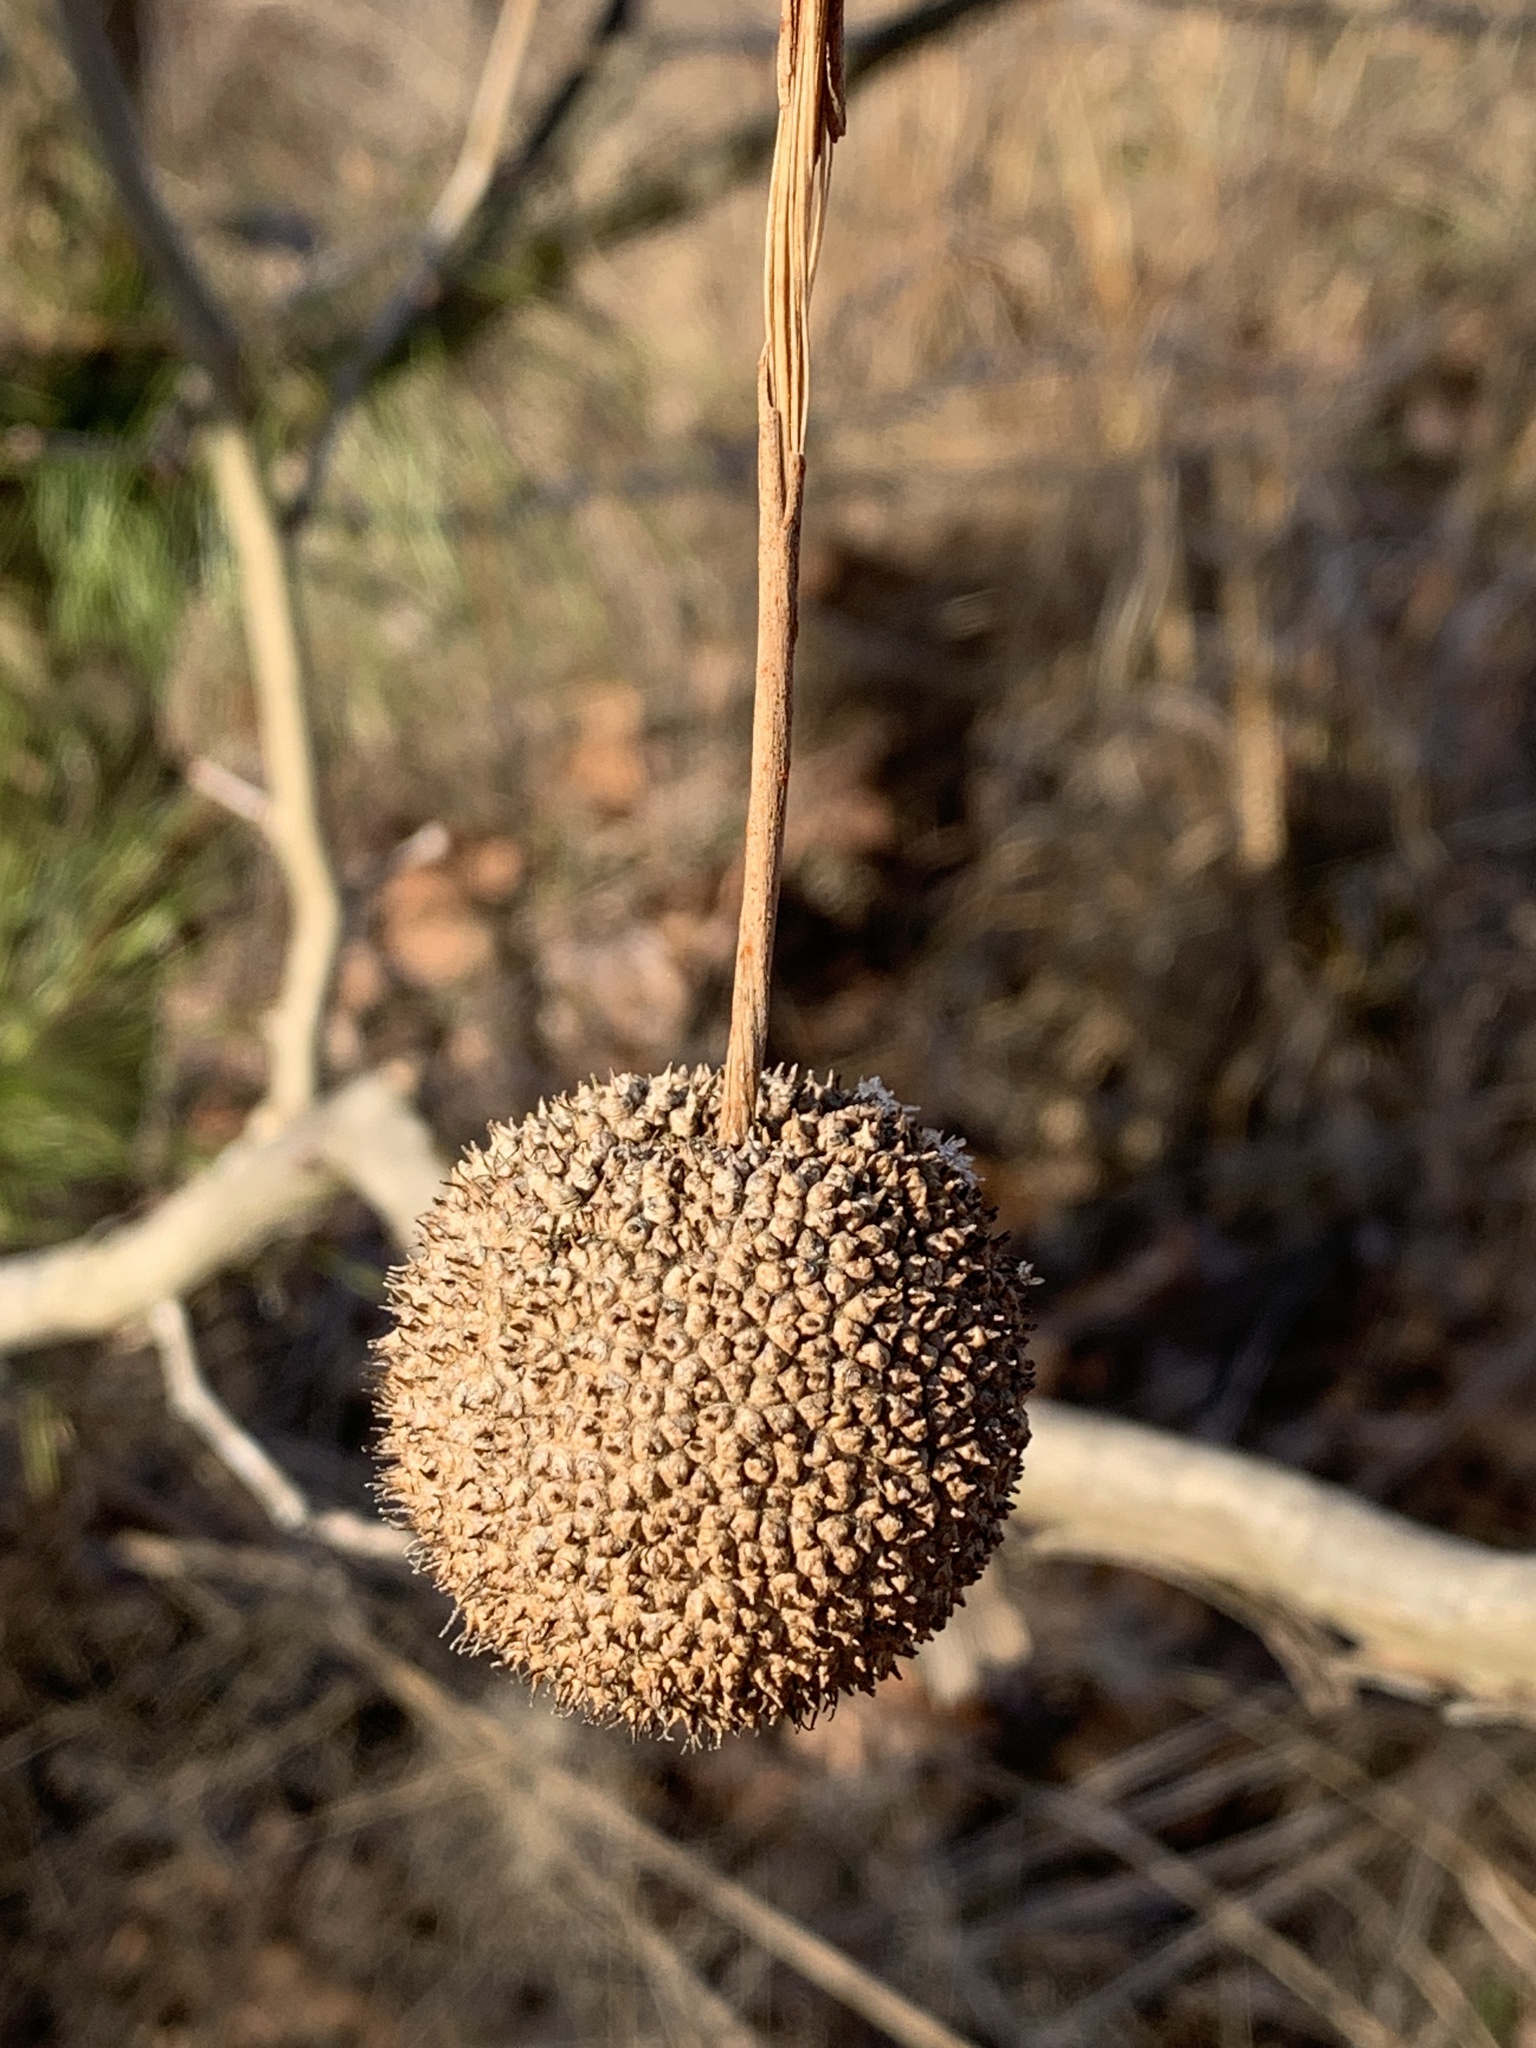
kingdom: Plantae
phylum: Tracheophyta
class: Magnoliopsida
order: Proteales
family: Platanaceae
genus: Platanus
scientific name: Platanus occidentalis
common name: American sycamore
